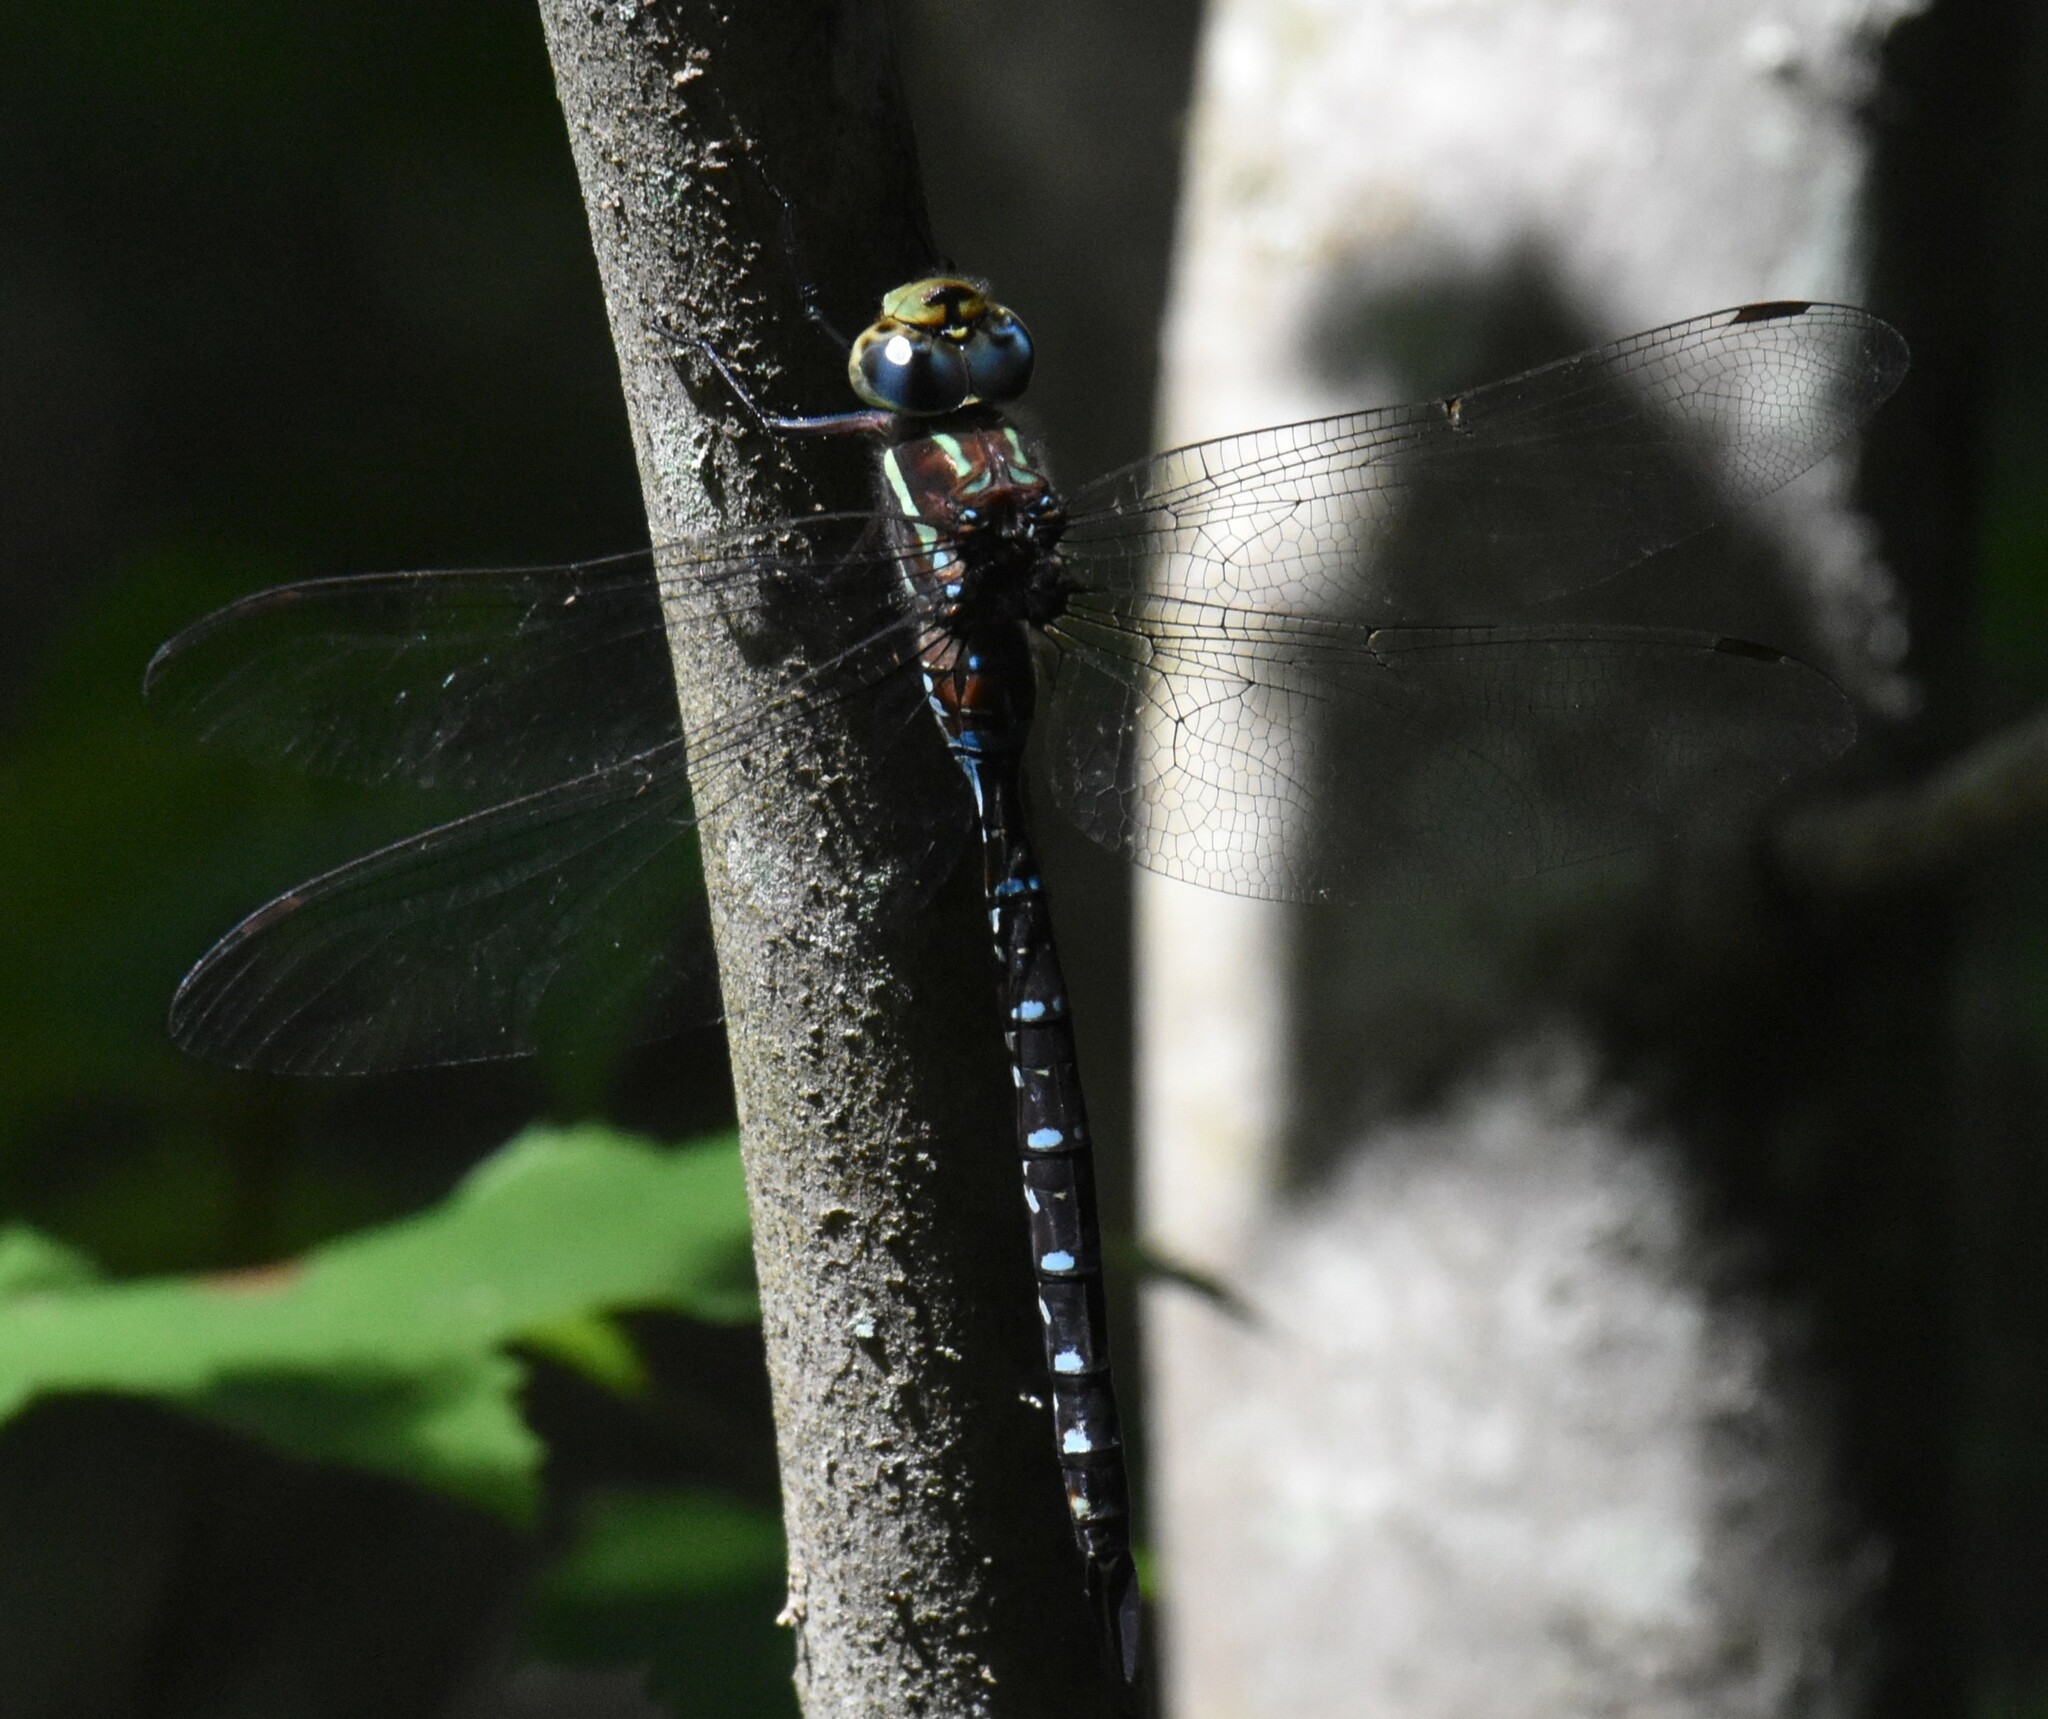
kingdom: Animalia
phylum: Arthropoda
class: Insecta
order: Odonata
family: Aeshnidae
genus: Aeshna
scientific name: Aeshna tuberculifera
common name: Aeschne à tubercules
